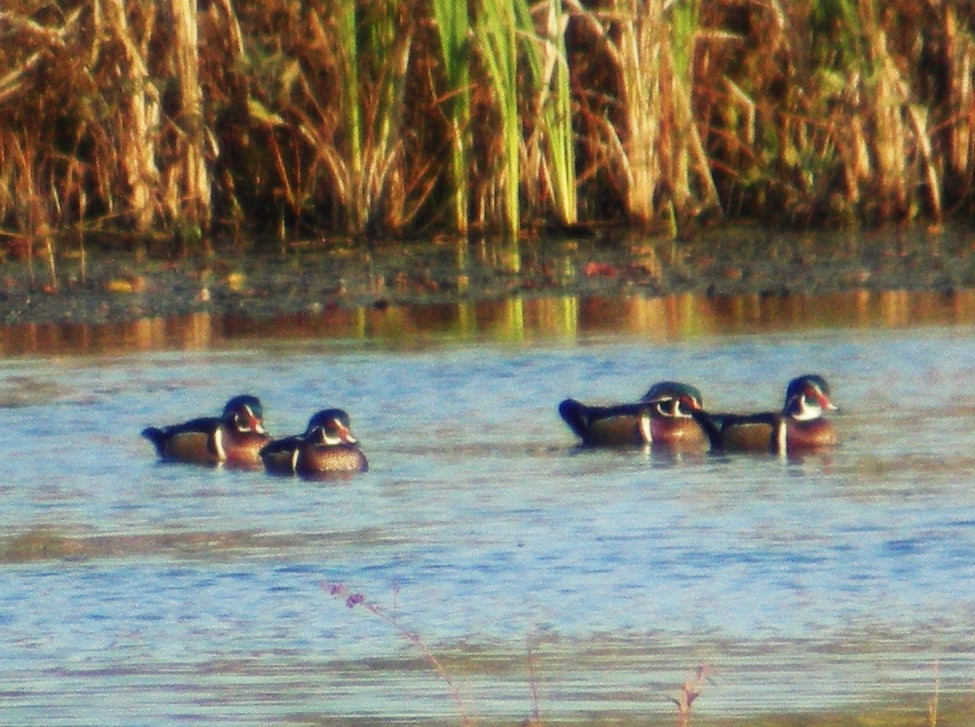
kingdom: Animalia
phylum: Chordata
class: Aves
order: Anseriformes
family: Anatidae
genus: Aix
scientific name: Aix sponsa
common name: Wood duck
